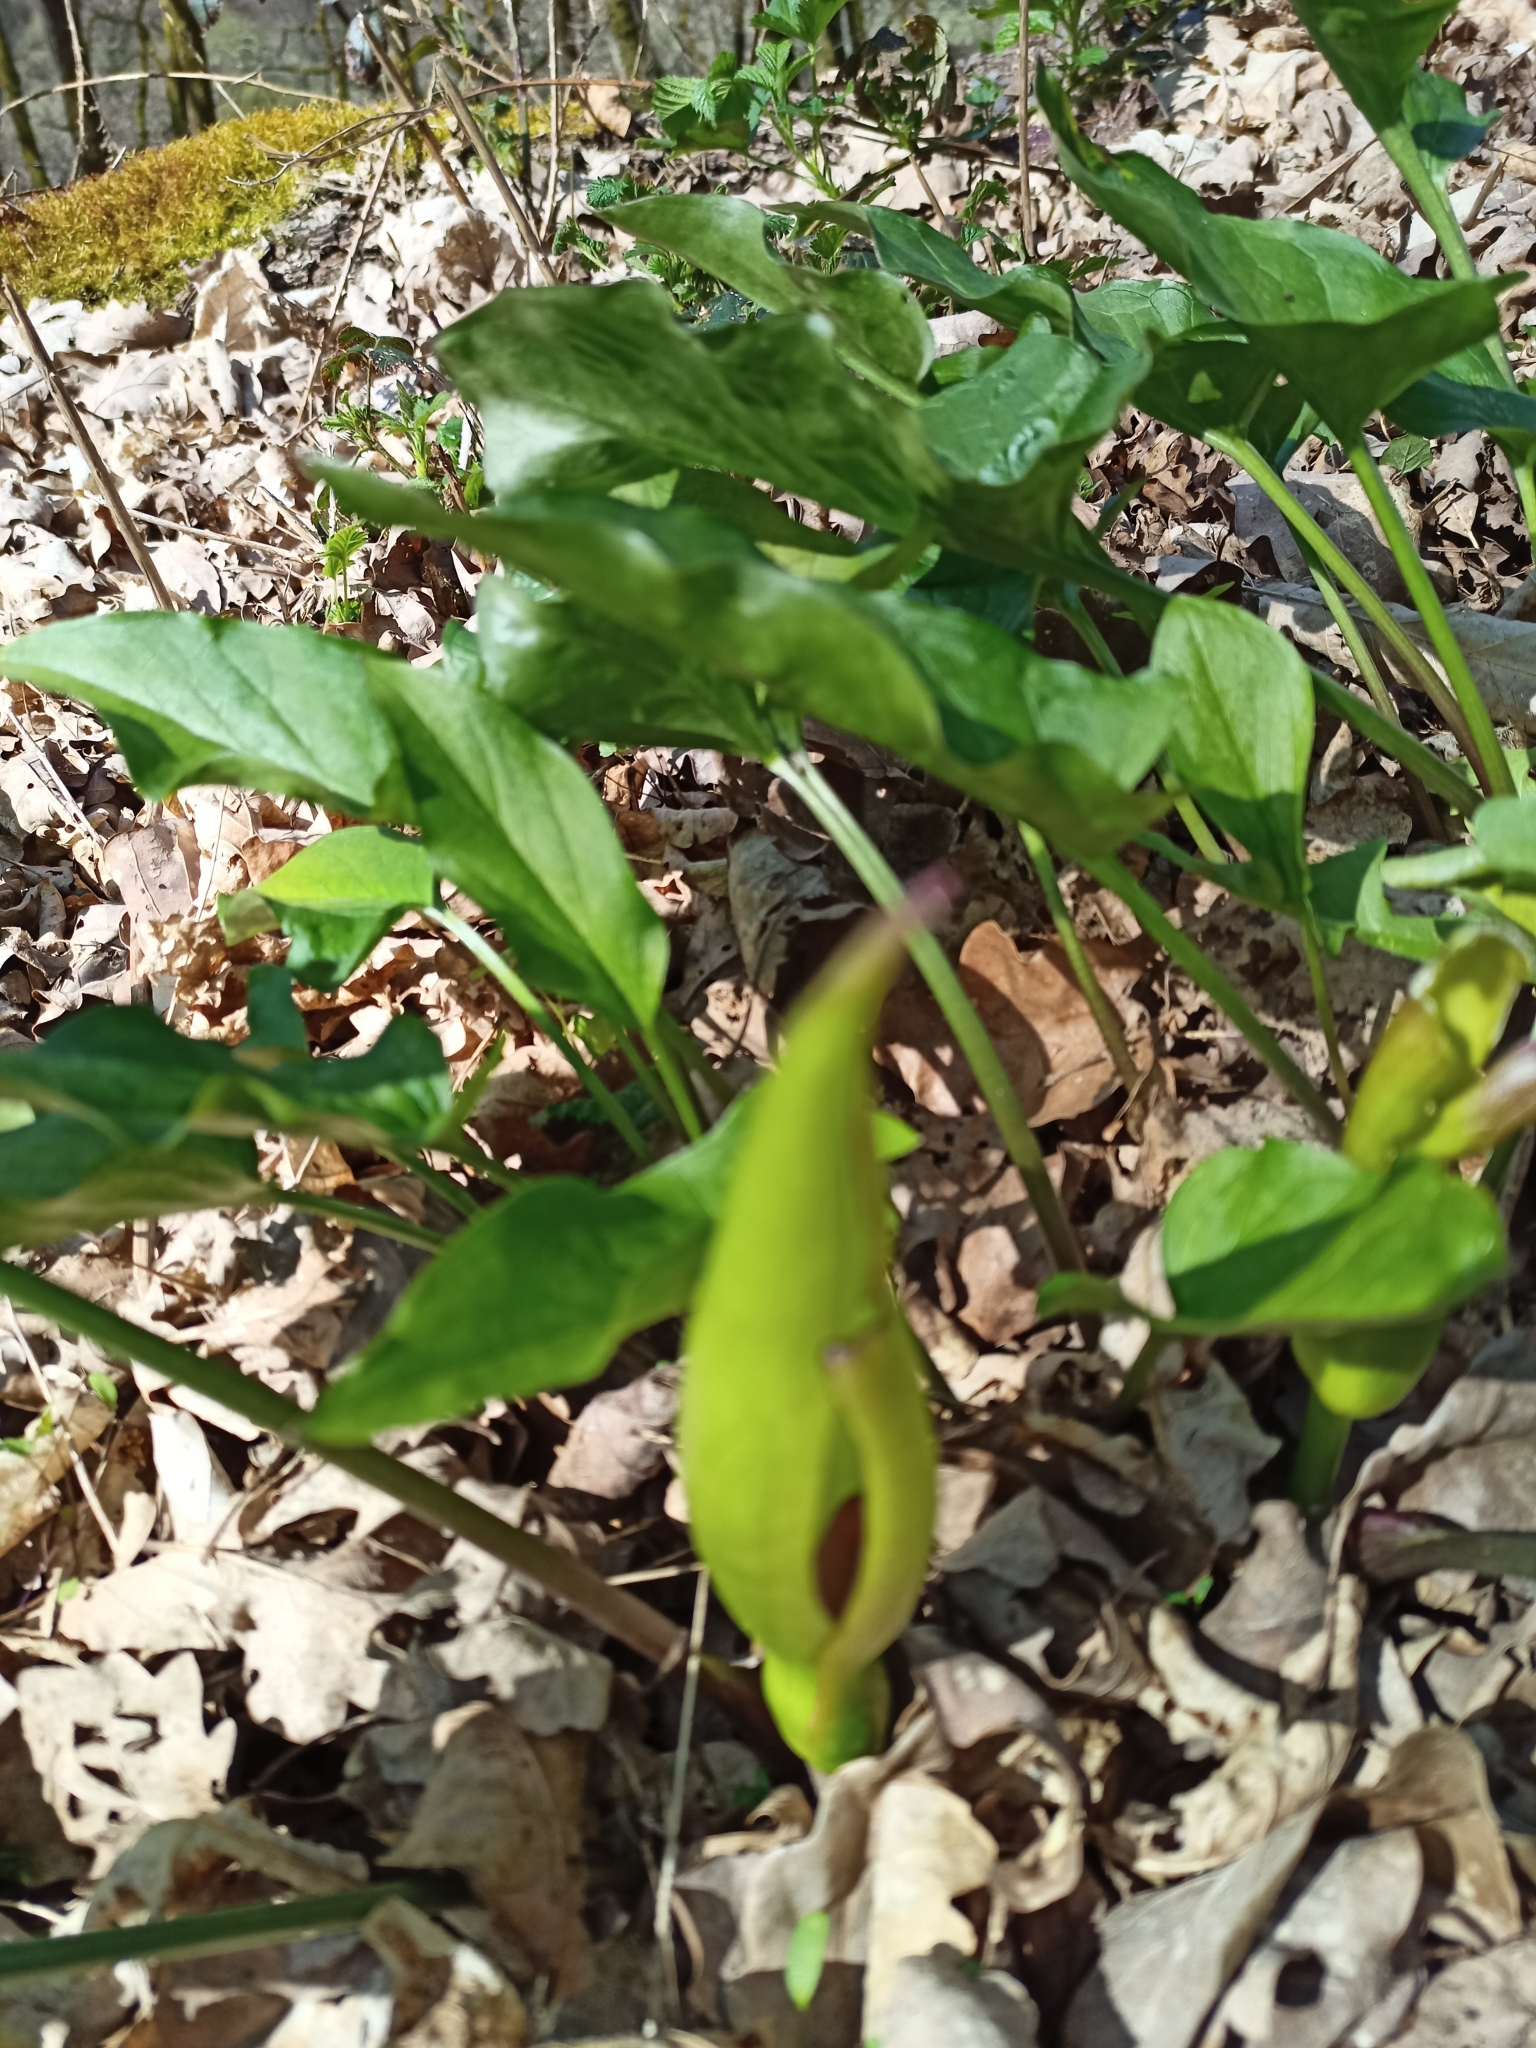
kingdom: Plantae
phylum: Tracheophyta
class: Liliopsida
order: Alismatales
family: Araceae
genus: Arum
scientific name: Arum maculatum
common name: Lords-and-ladies
